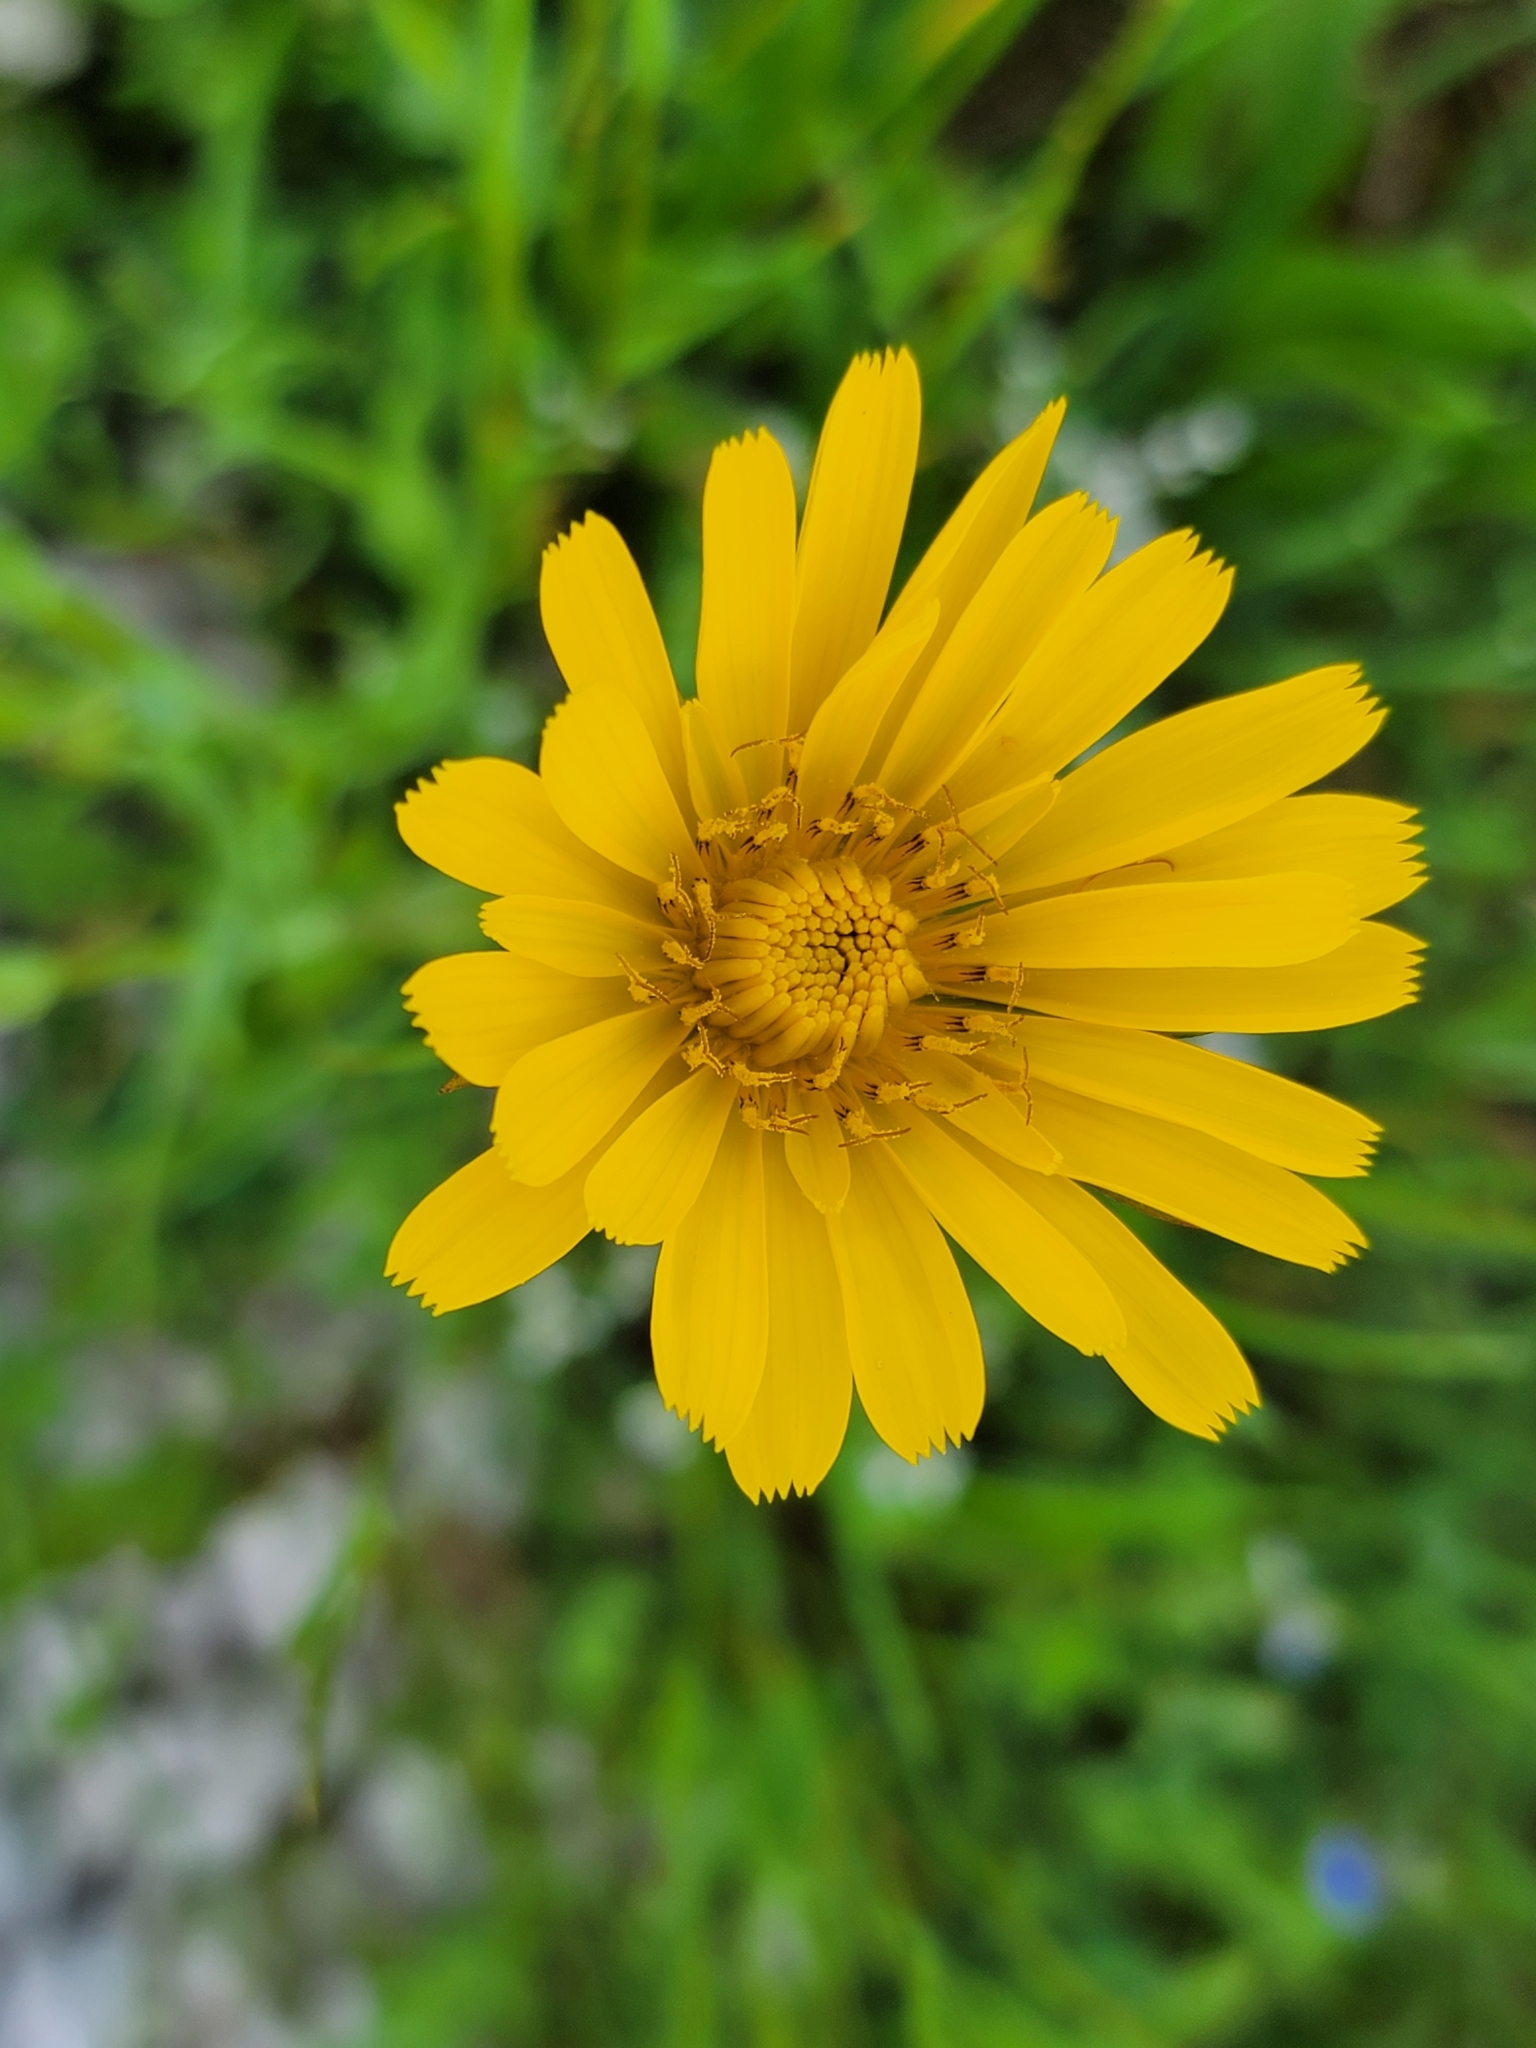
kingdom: Plantae
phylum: Tracheophyta
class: Magnoliopsida
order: Asterales
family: Asteraceae
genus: Tragopogon
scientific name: Tragopogon orientalis
